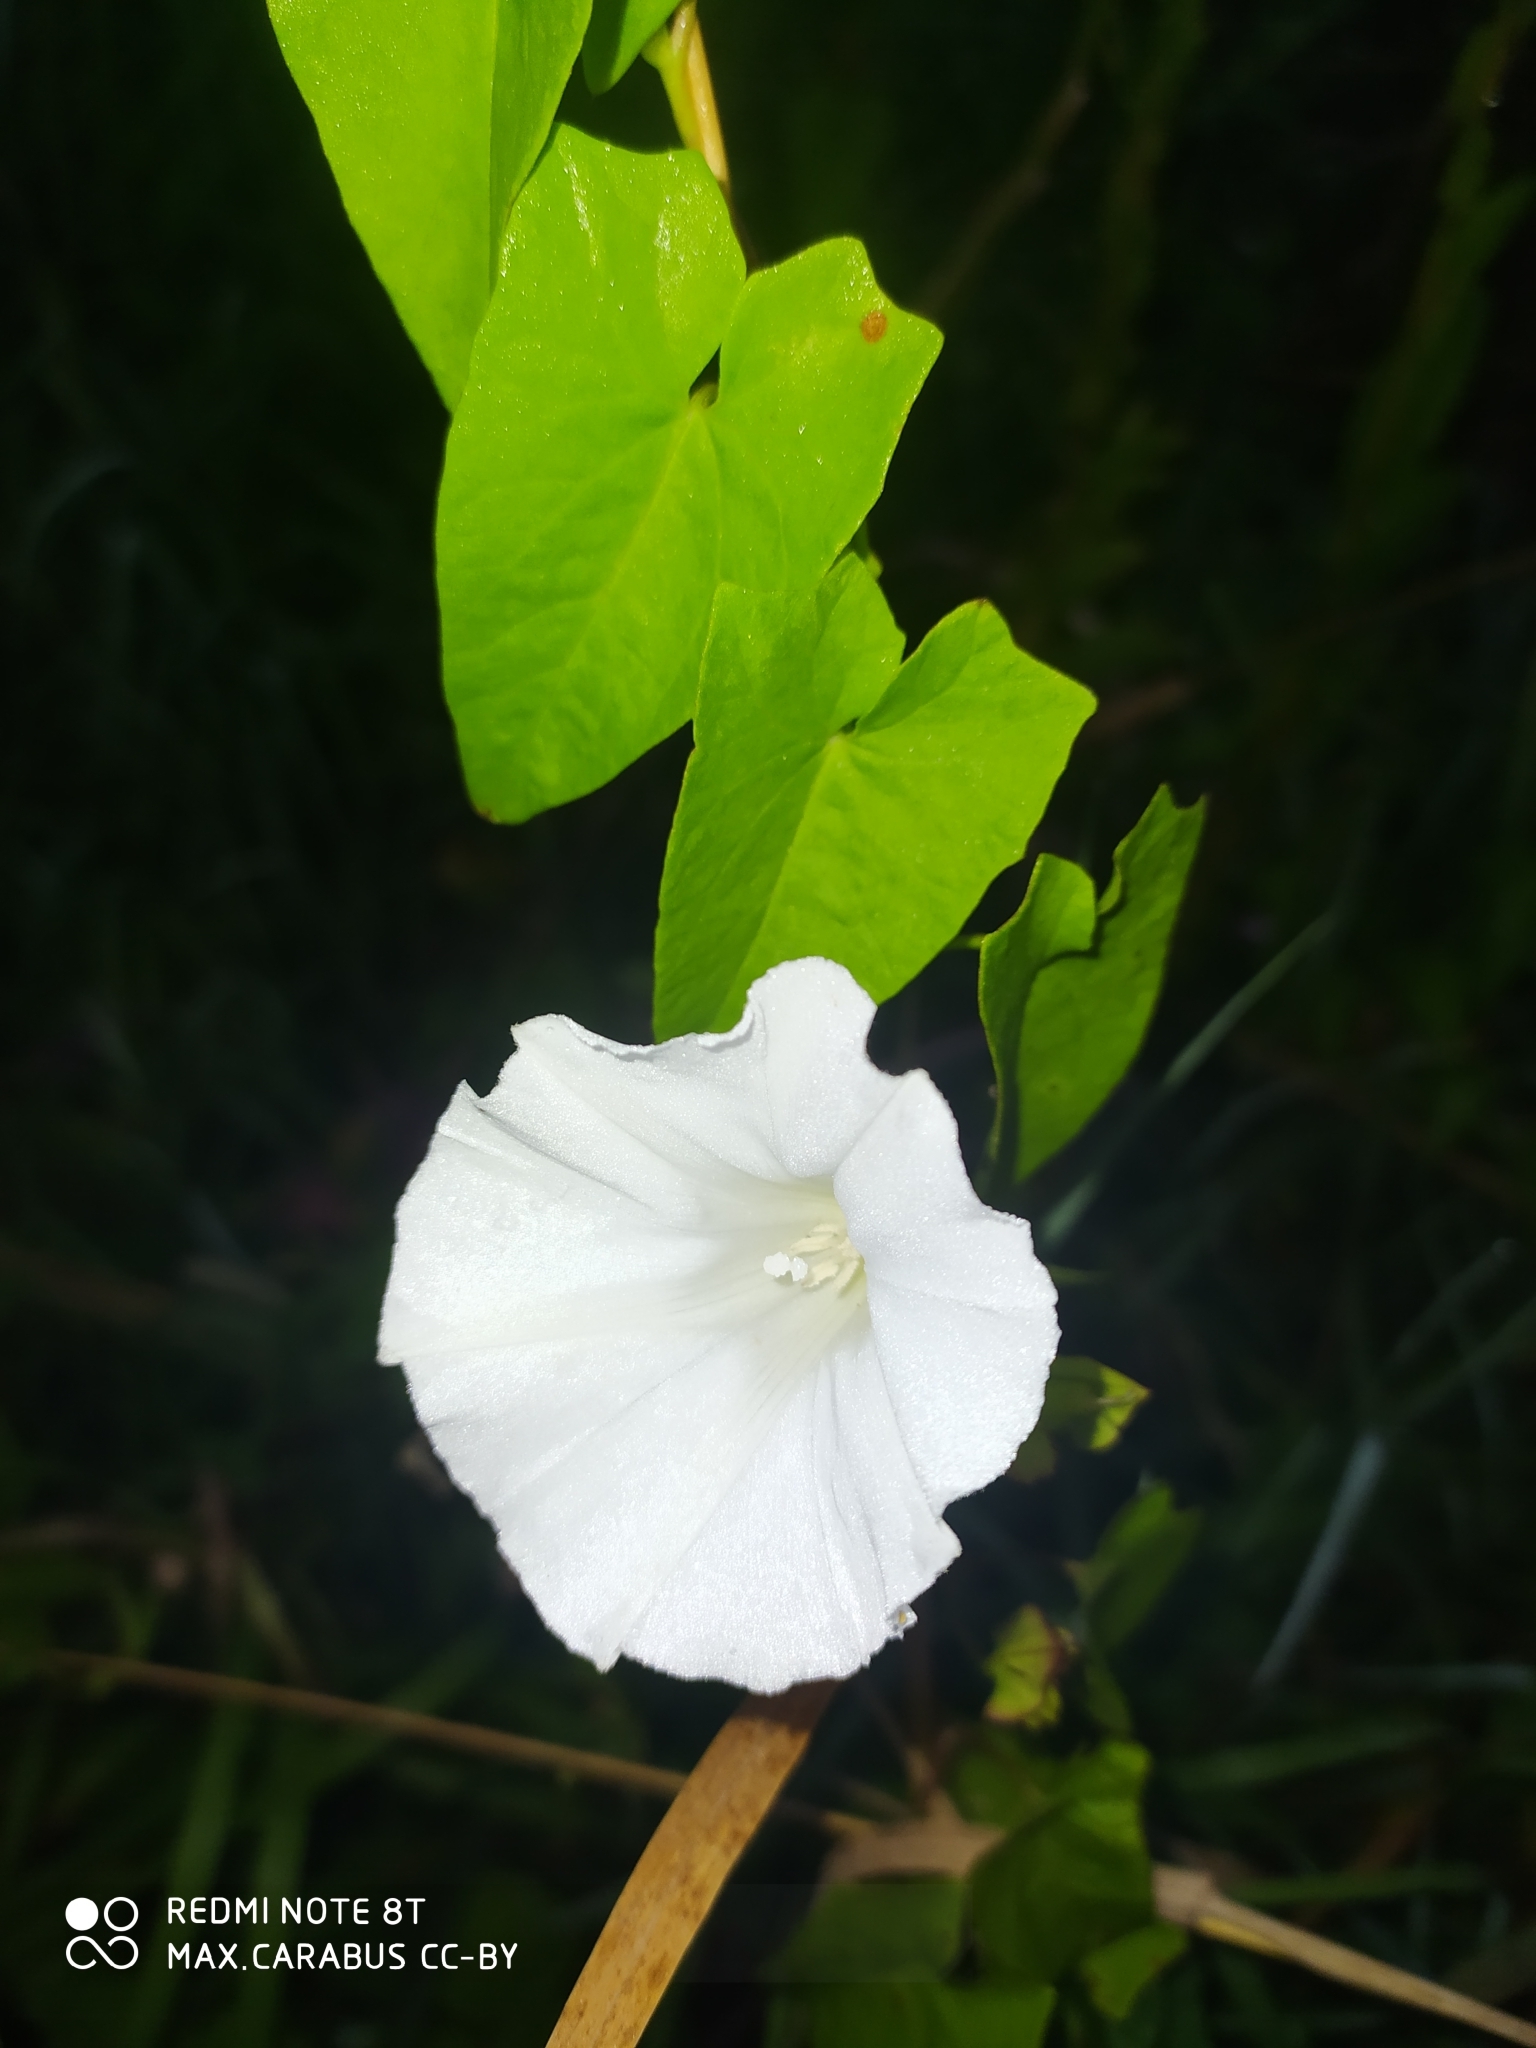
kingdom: Plantae
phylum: Tracheophyta
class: Magnoliopsida
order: Solanales
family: Convolvulaceae
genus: Calystegia
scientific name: Calystegia sepium
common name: Hedge bindweed
